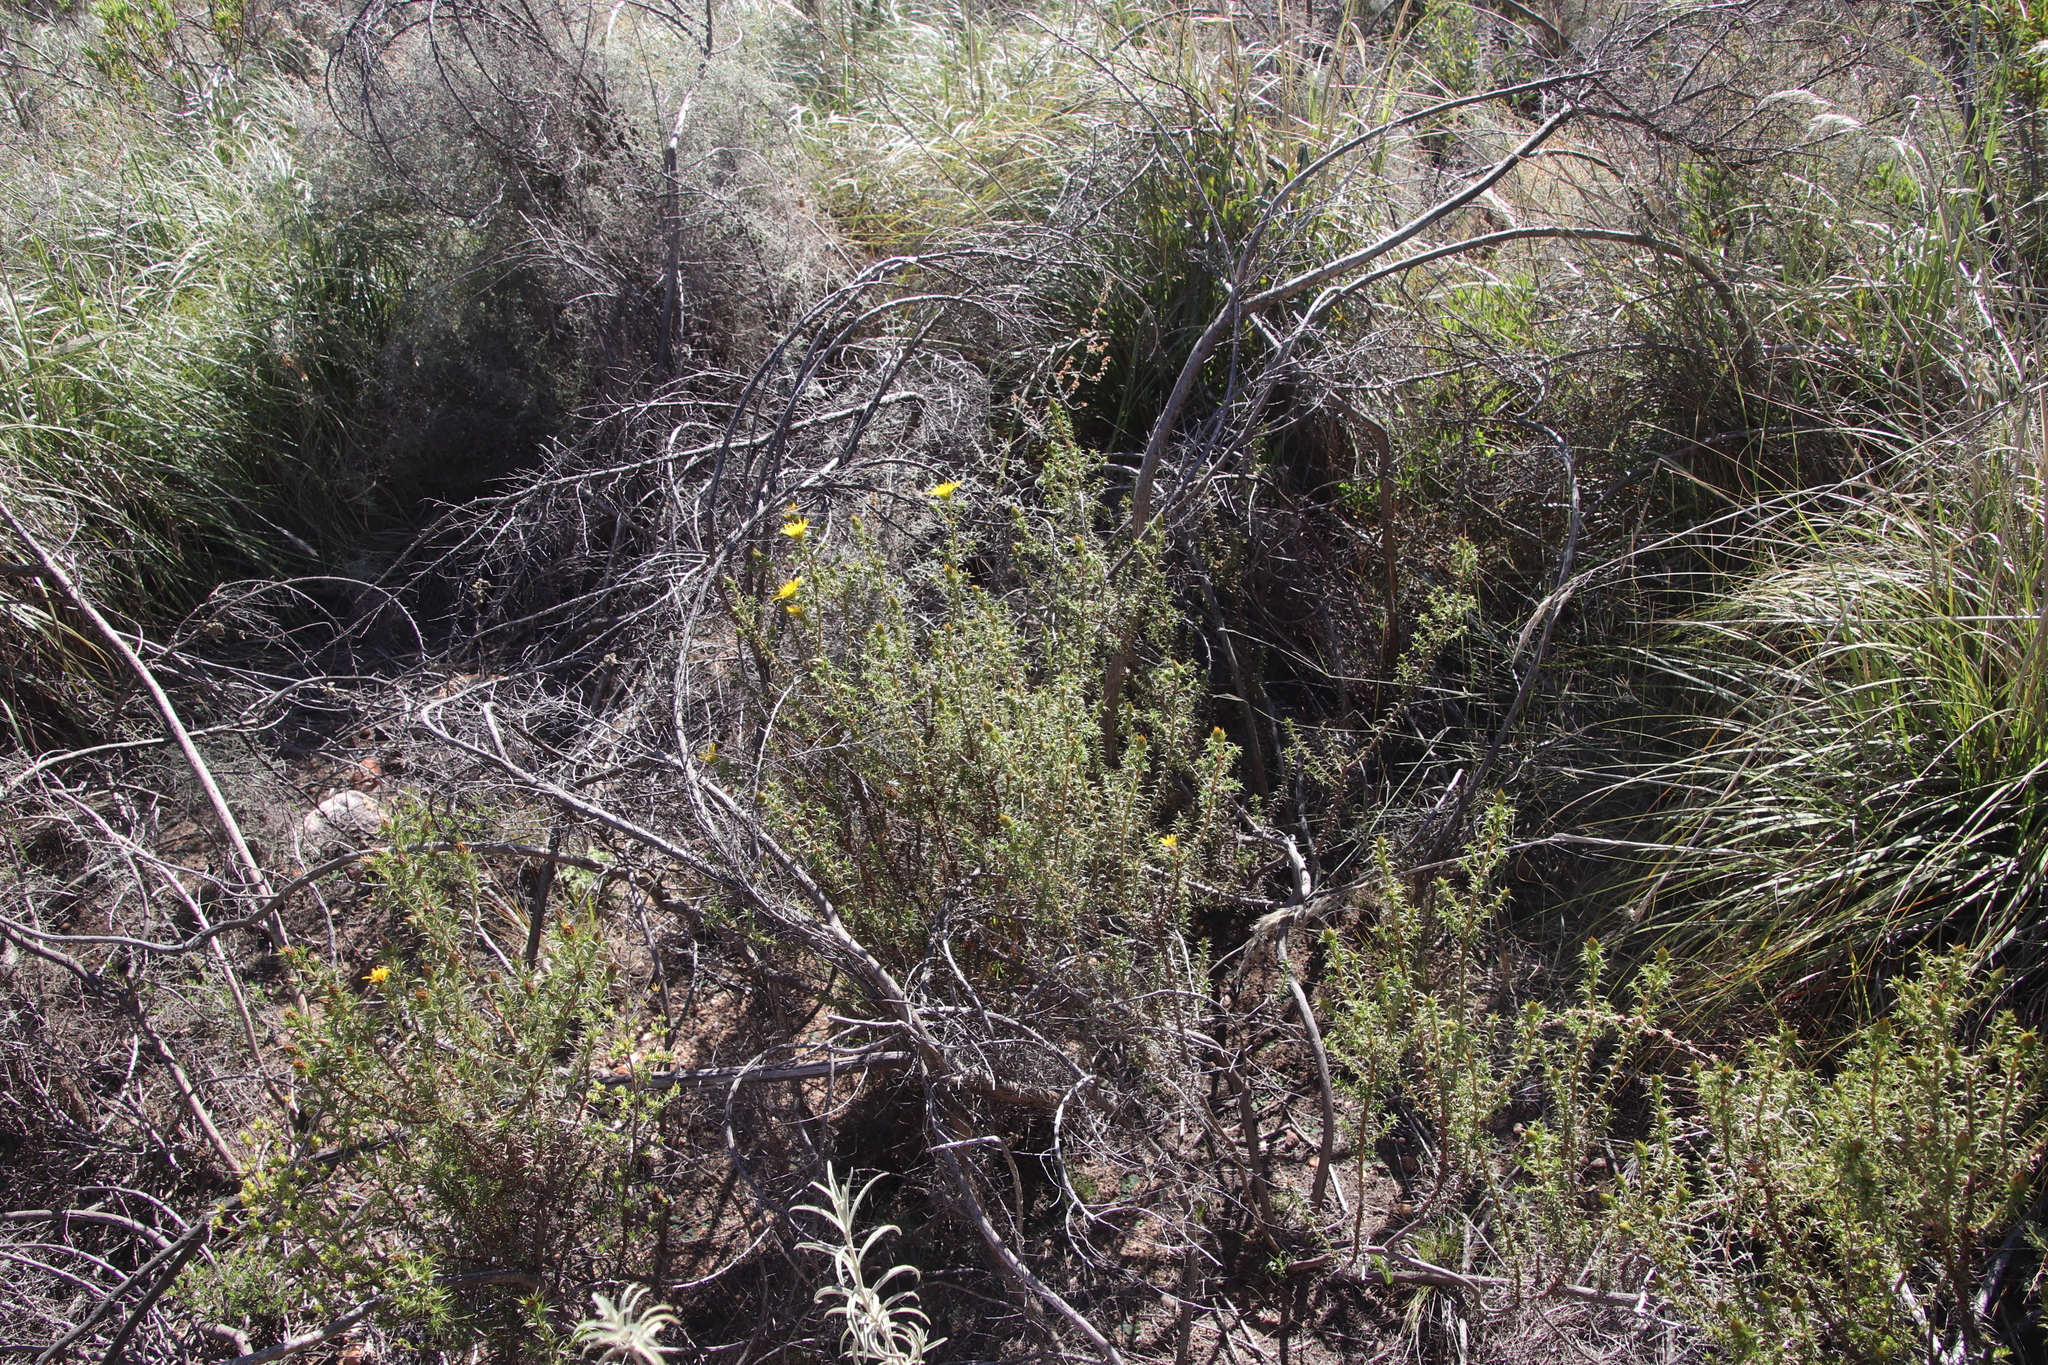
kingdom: Plantae
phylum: Tracheophyta
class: Magnoliopsida
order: Asterales
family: Asteraceae
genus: Cullumia
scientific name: Cullumia bisulca
